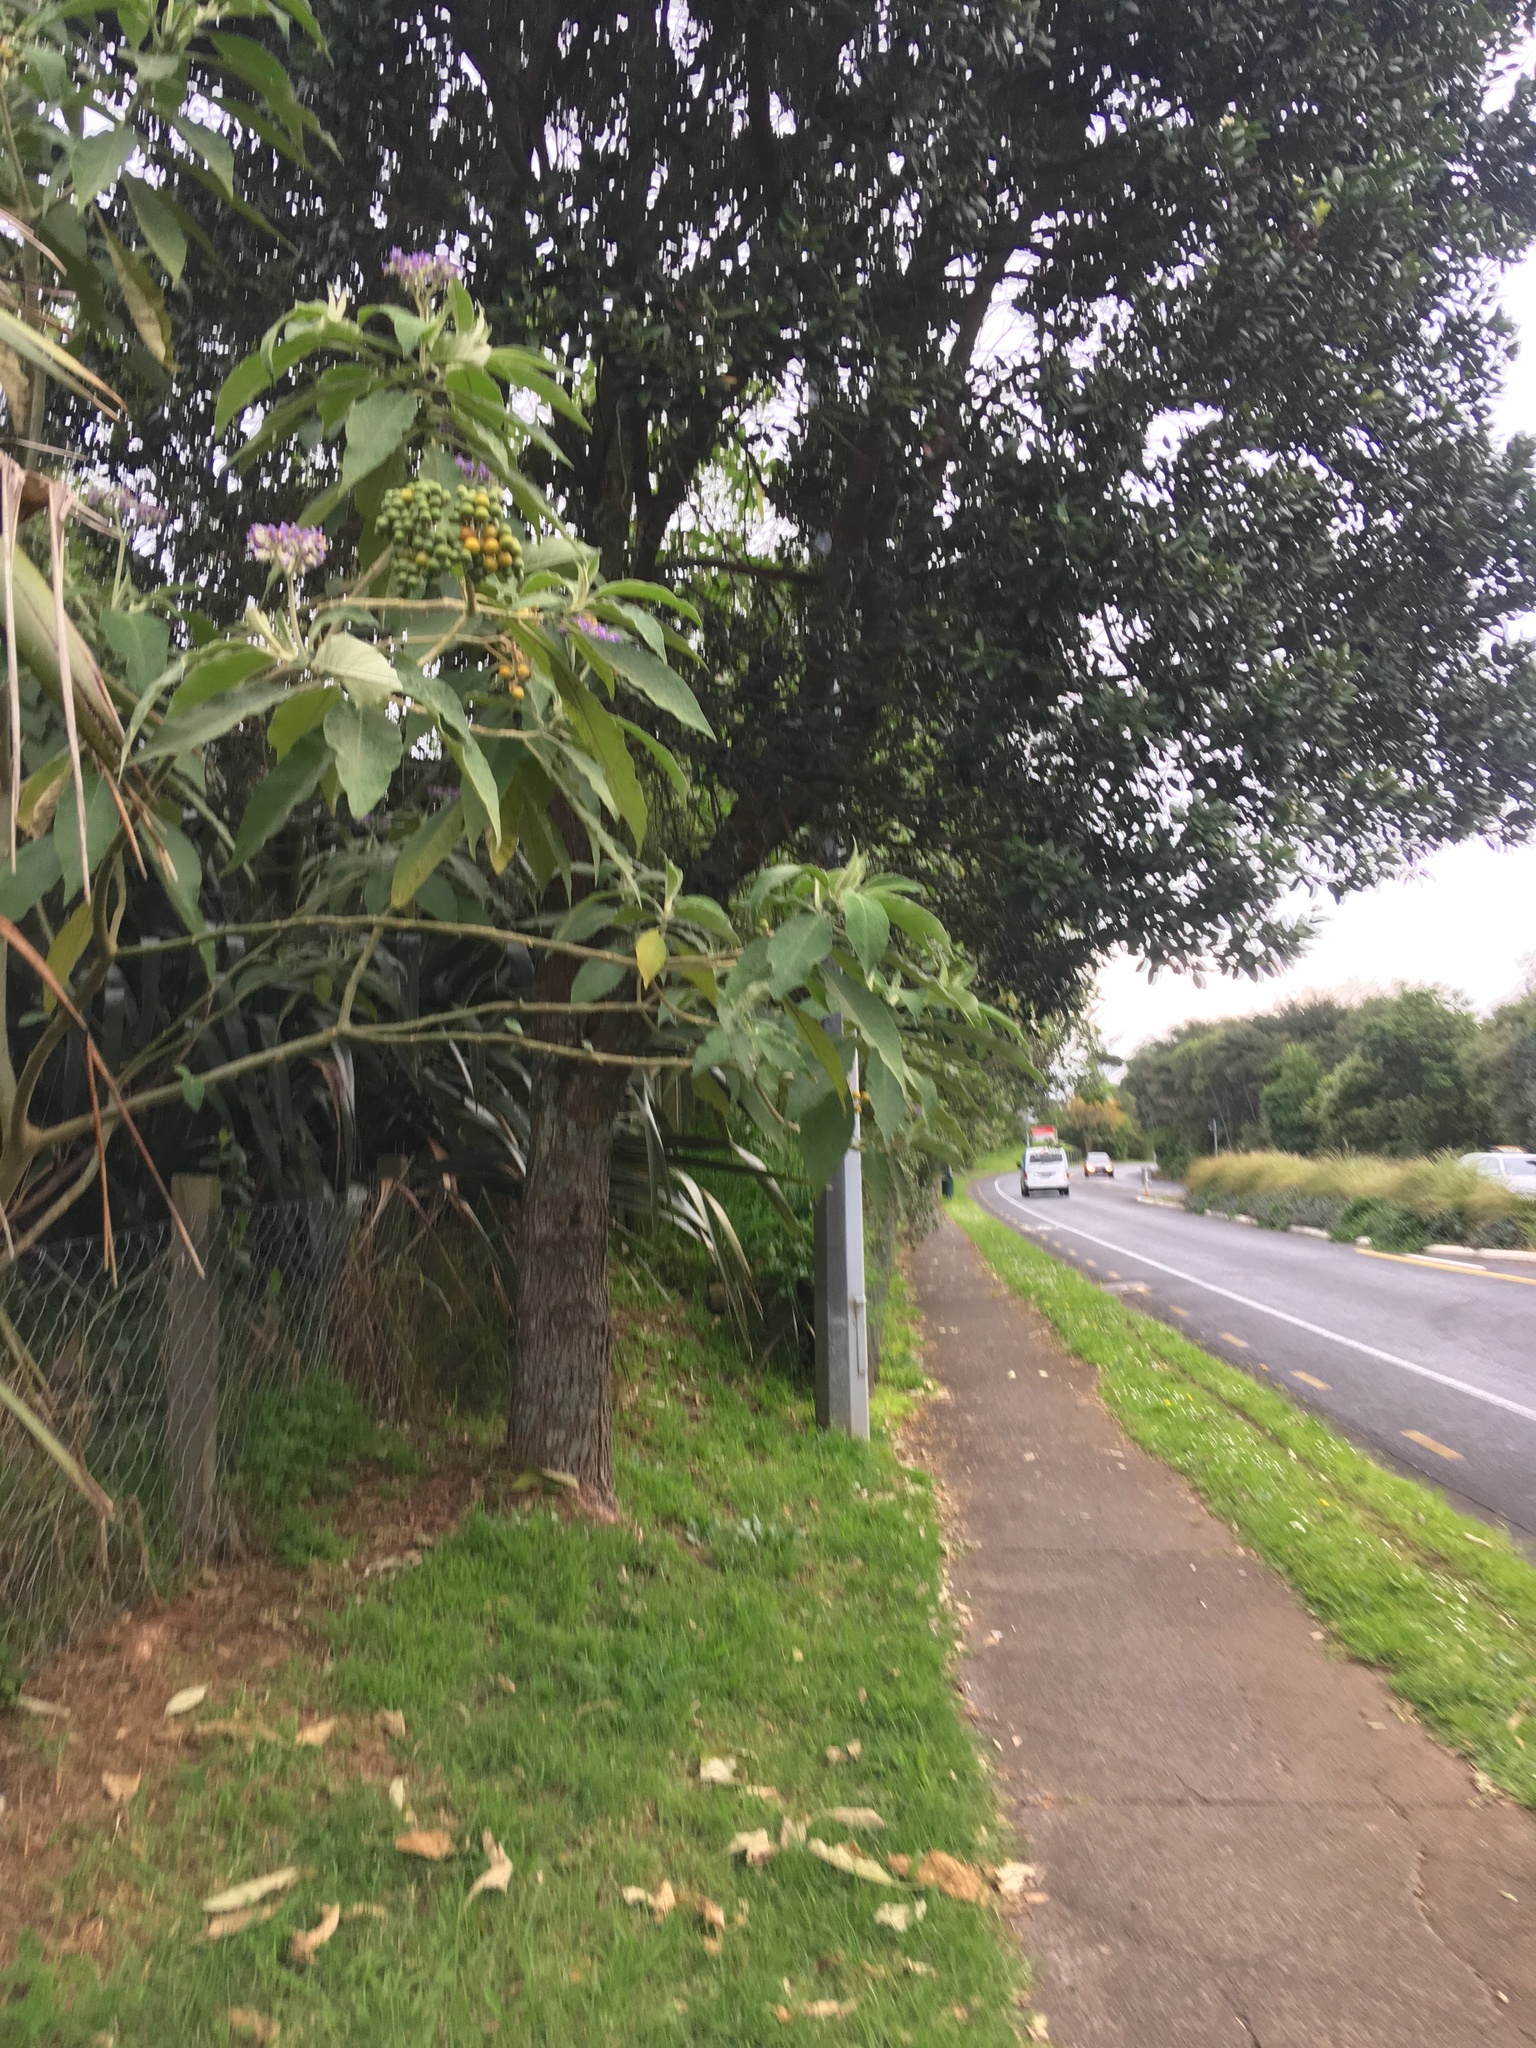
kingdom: Plantae
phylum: Tracheophyta
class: Magnoliopsida
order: Solanales
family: Solanaceae
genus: Solanum
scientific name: Solanum mauritianum
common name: Earleaf nightshade
